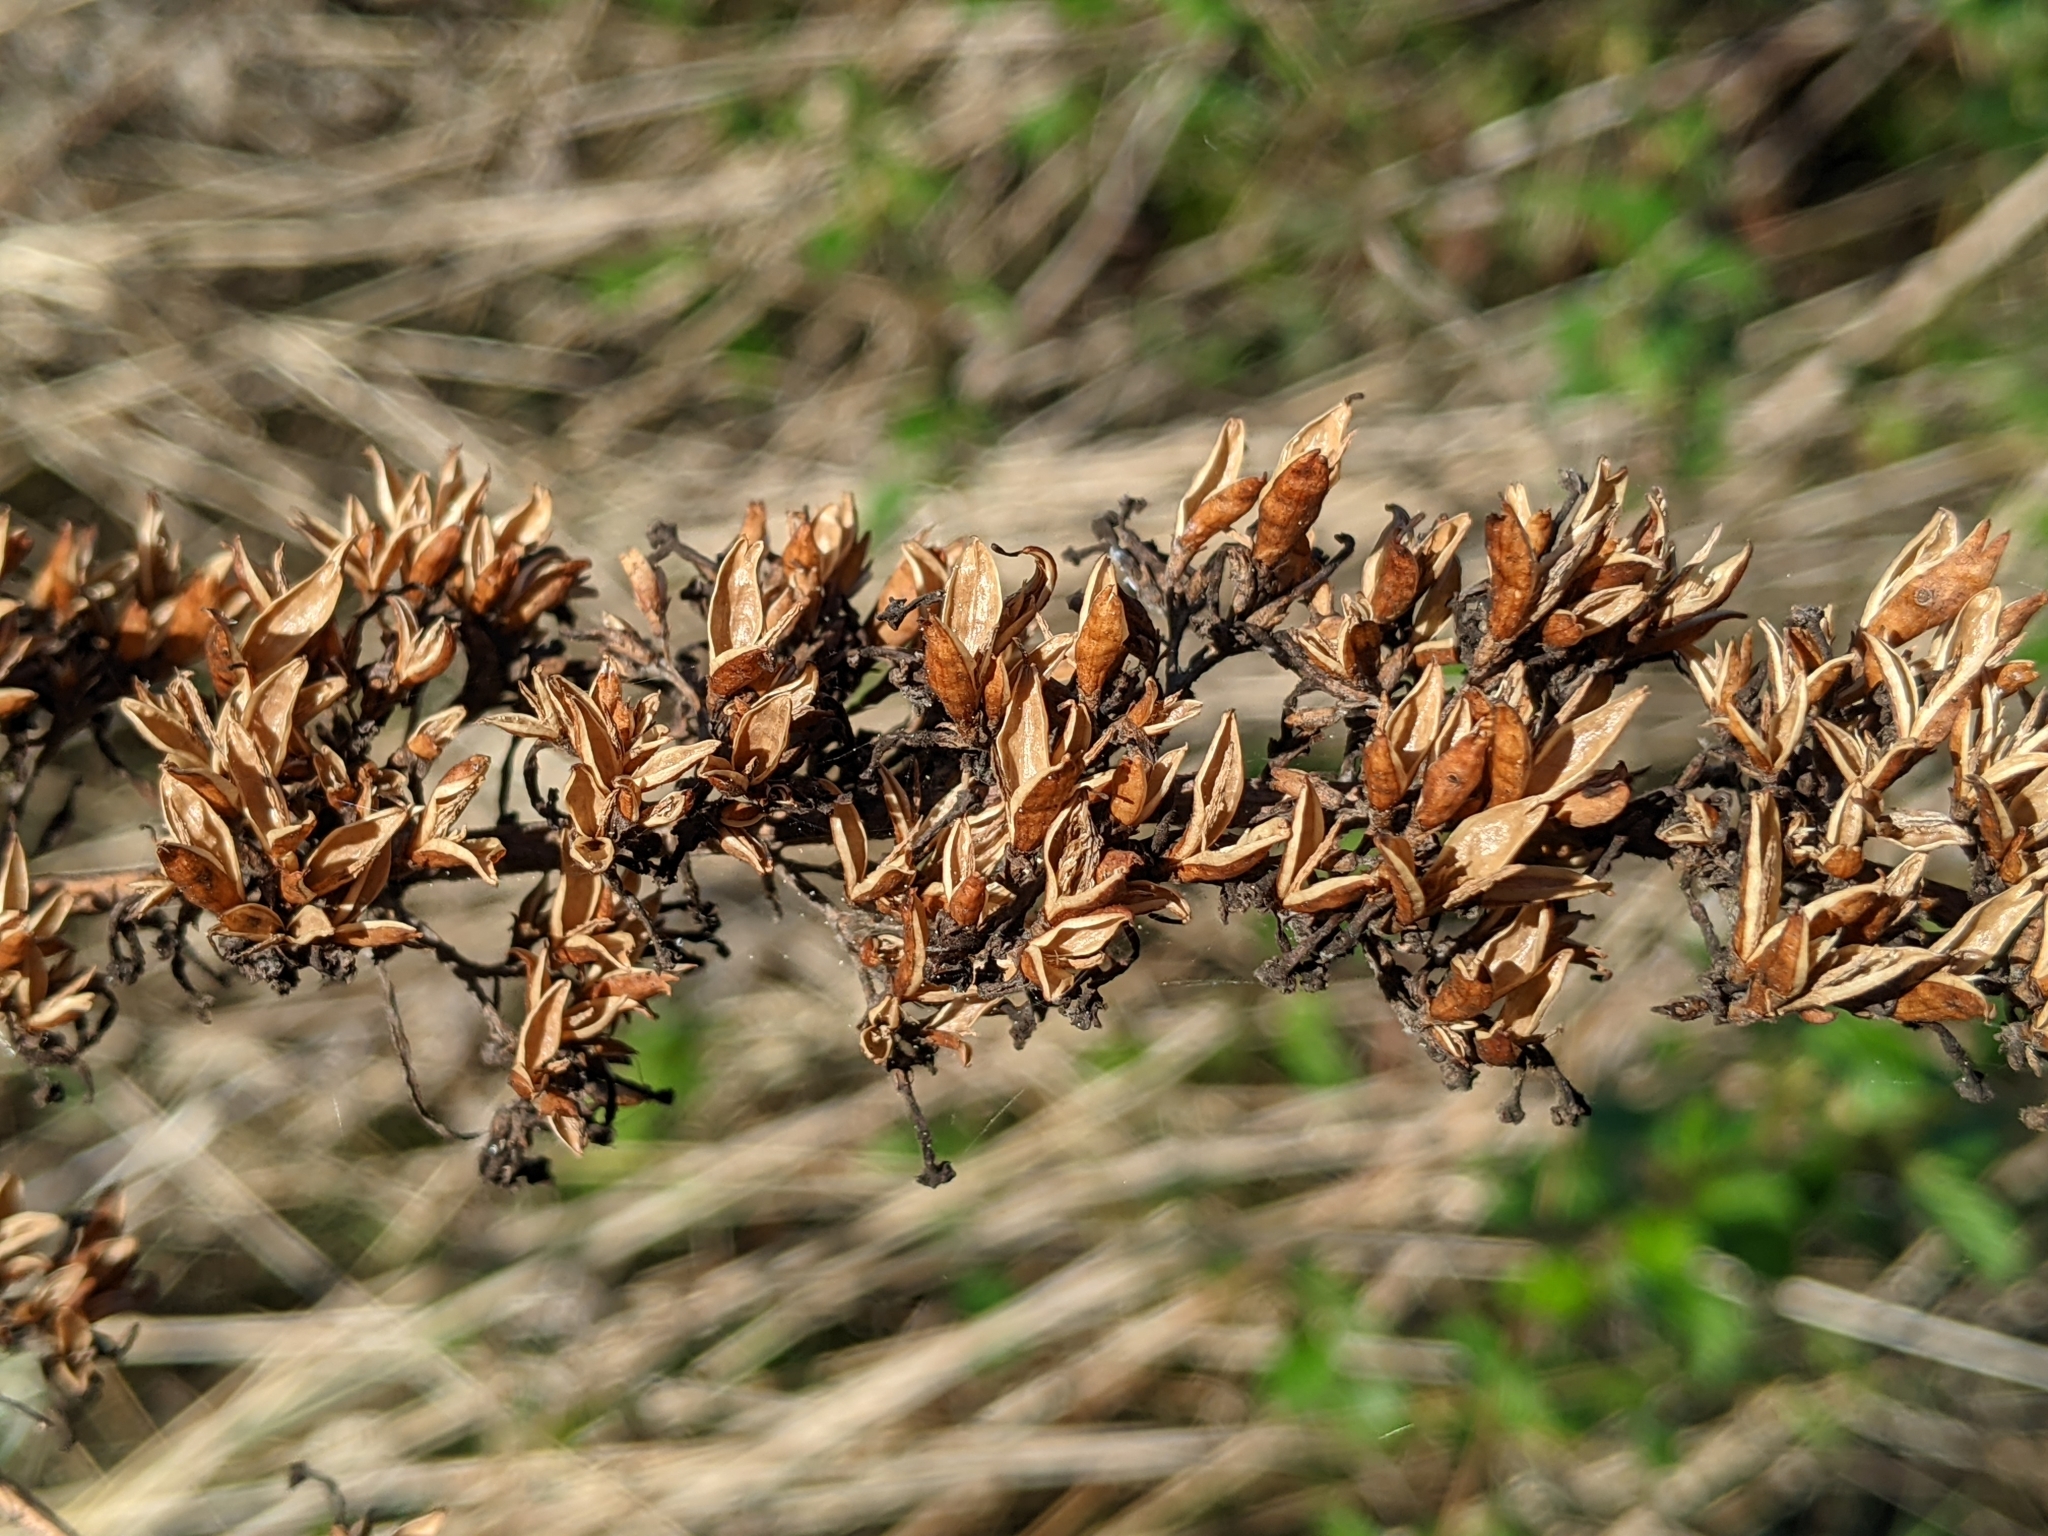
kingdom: Plantae
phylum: Tracheophyta
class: Magnoliopsida
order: Lamiales
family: Scrophulariaceae
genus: Buddleja
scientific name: Buddleja davidii
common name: Butterfly-bush
